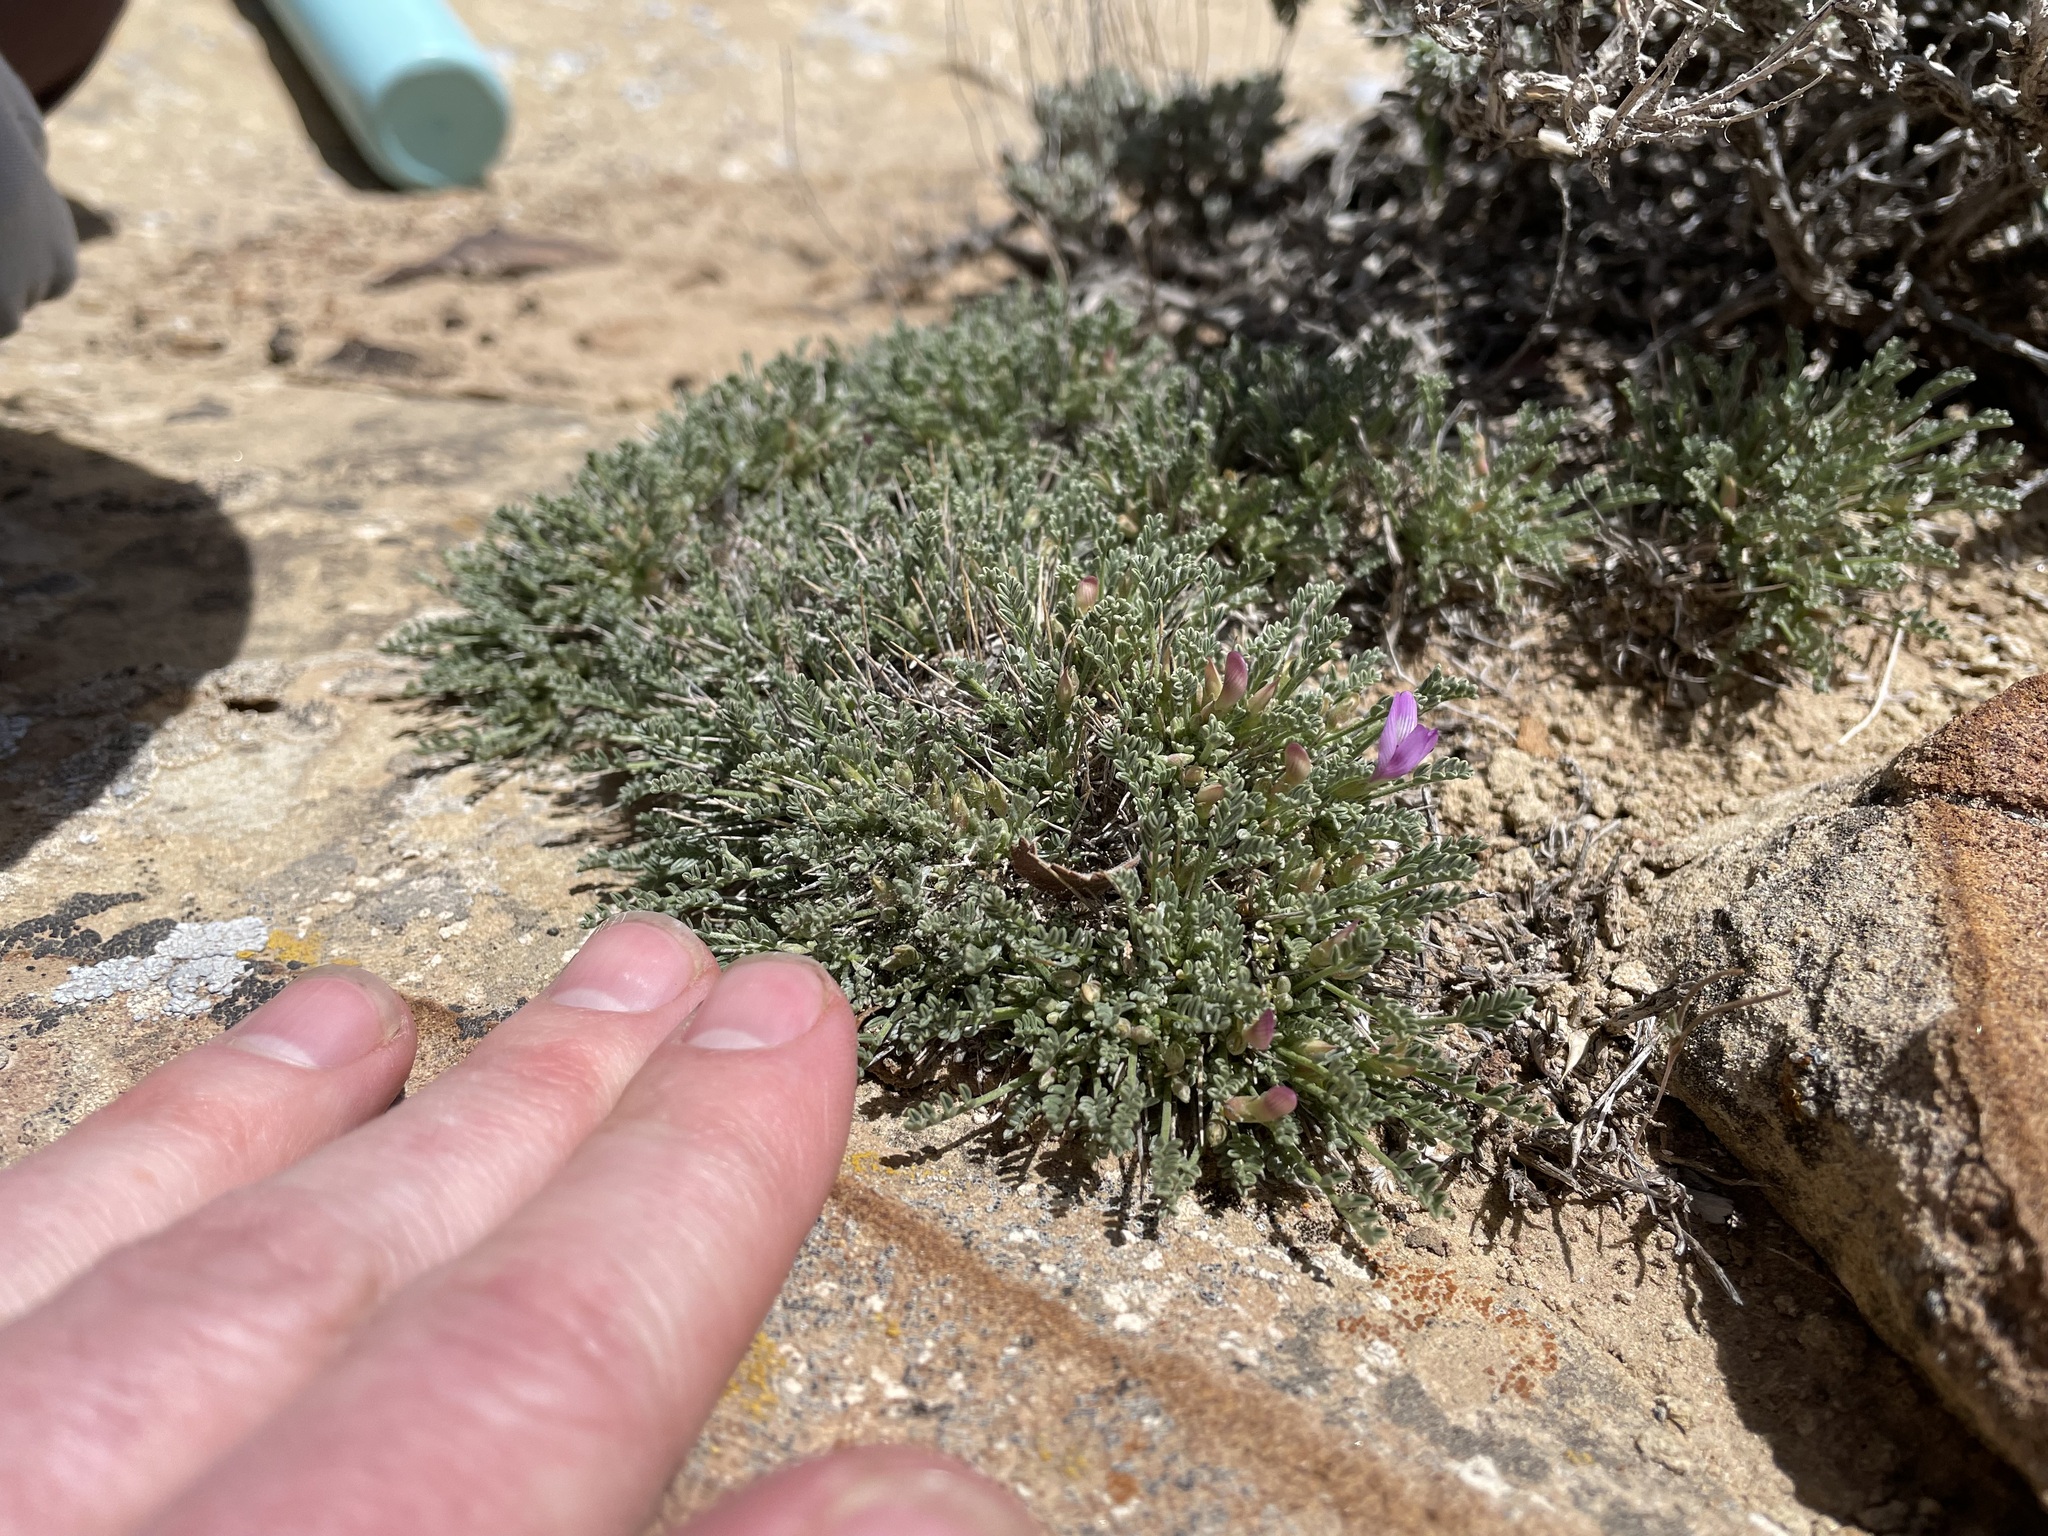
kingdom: Plantae
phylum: Tracheophyta
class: Magnoliopsida
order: Fabales
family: Fabaceae
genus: Astragalus
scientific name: Astragalus humillimus
